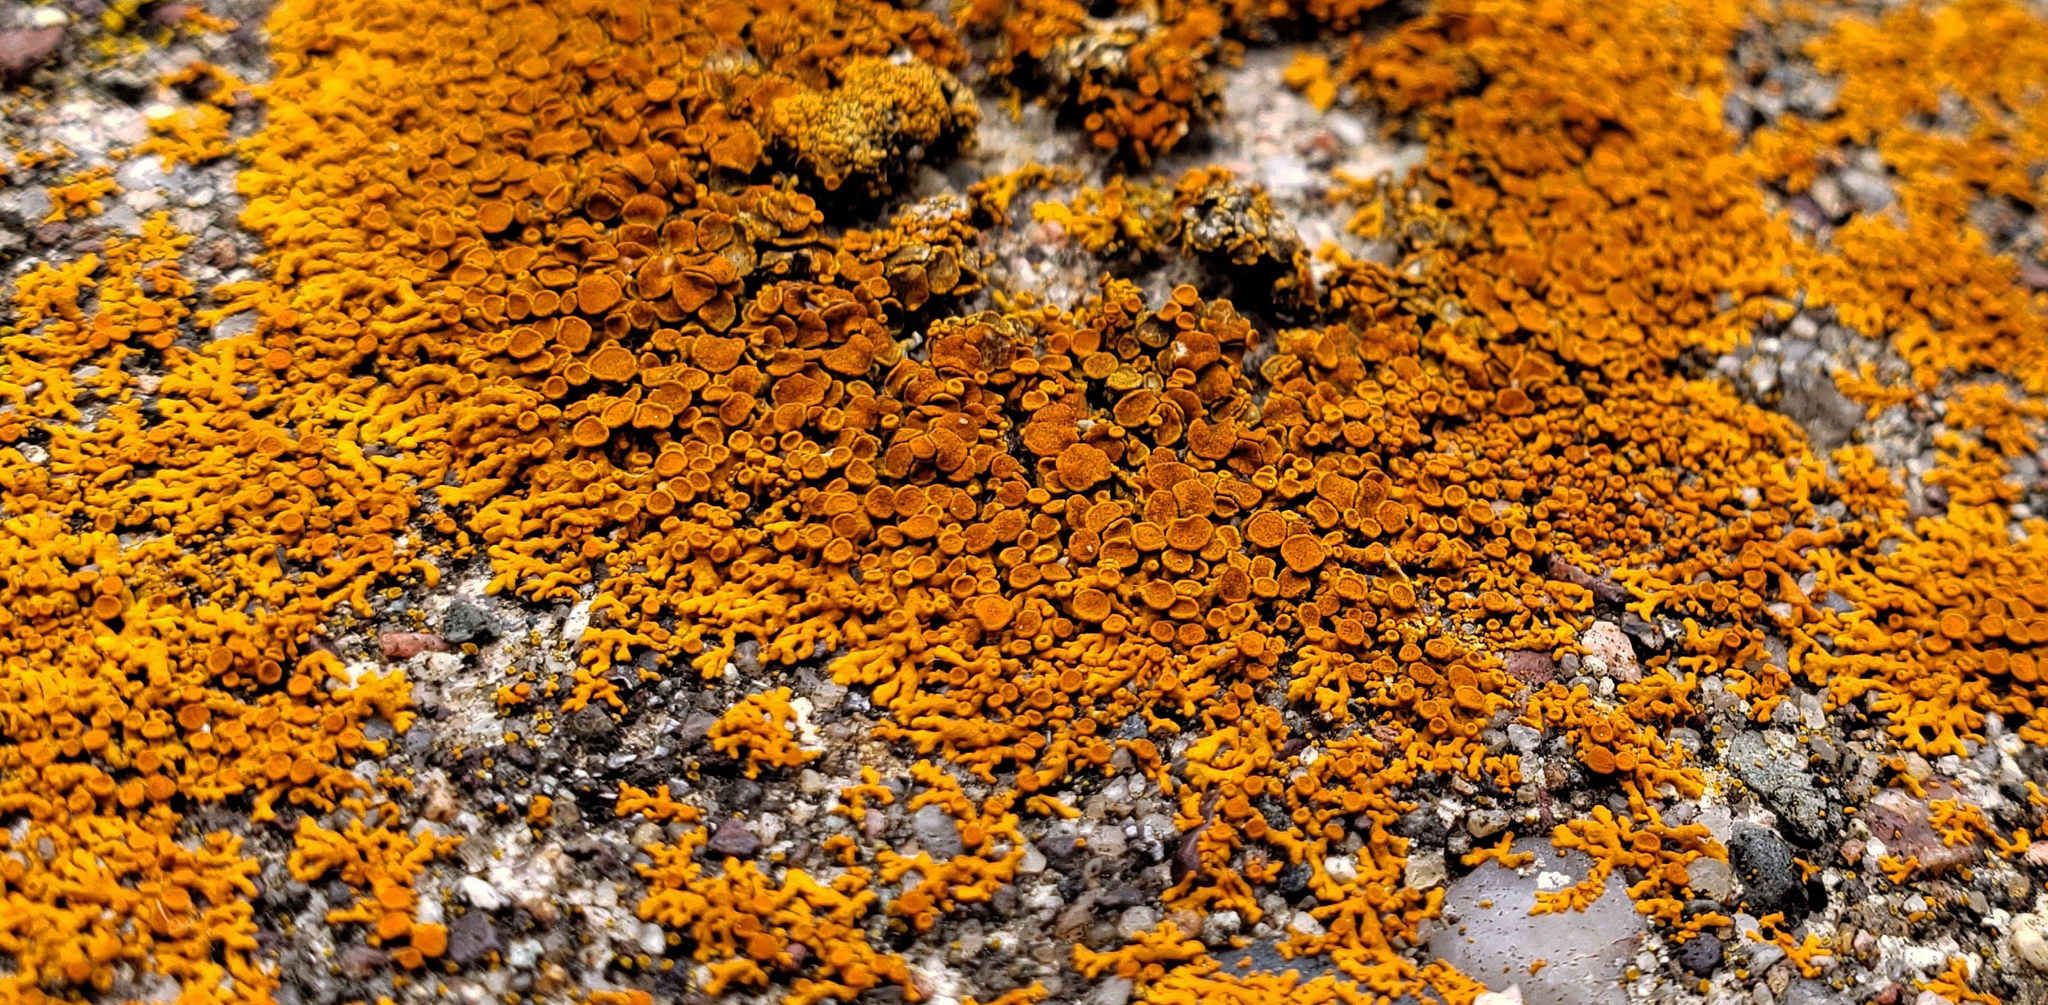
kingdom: Fungi
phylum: Ascomycota
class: Lecanoromycetes
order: Teloschistales
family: Teloschistaceae
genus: Xanthoria
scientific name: Xanthoria elegans
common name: Elegant sunburst lichen
